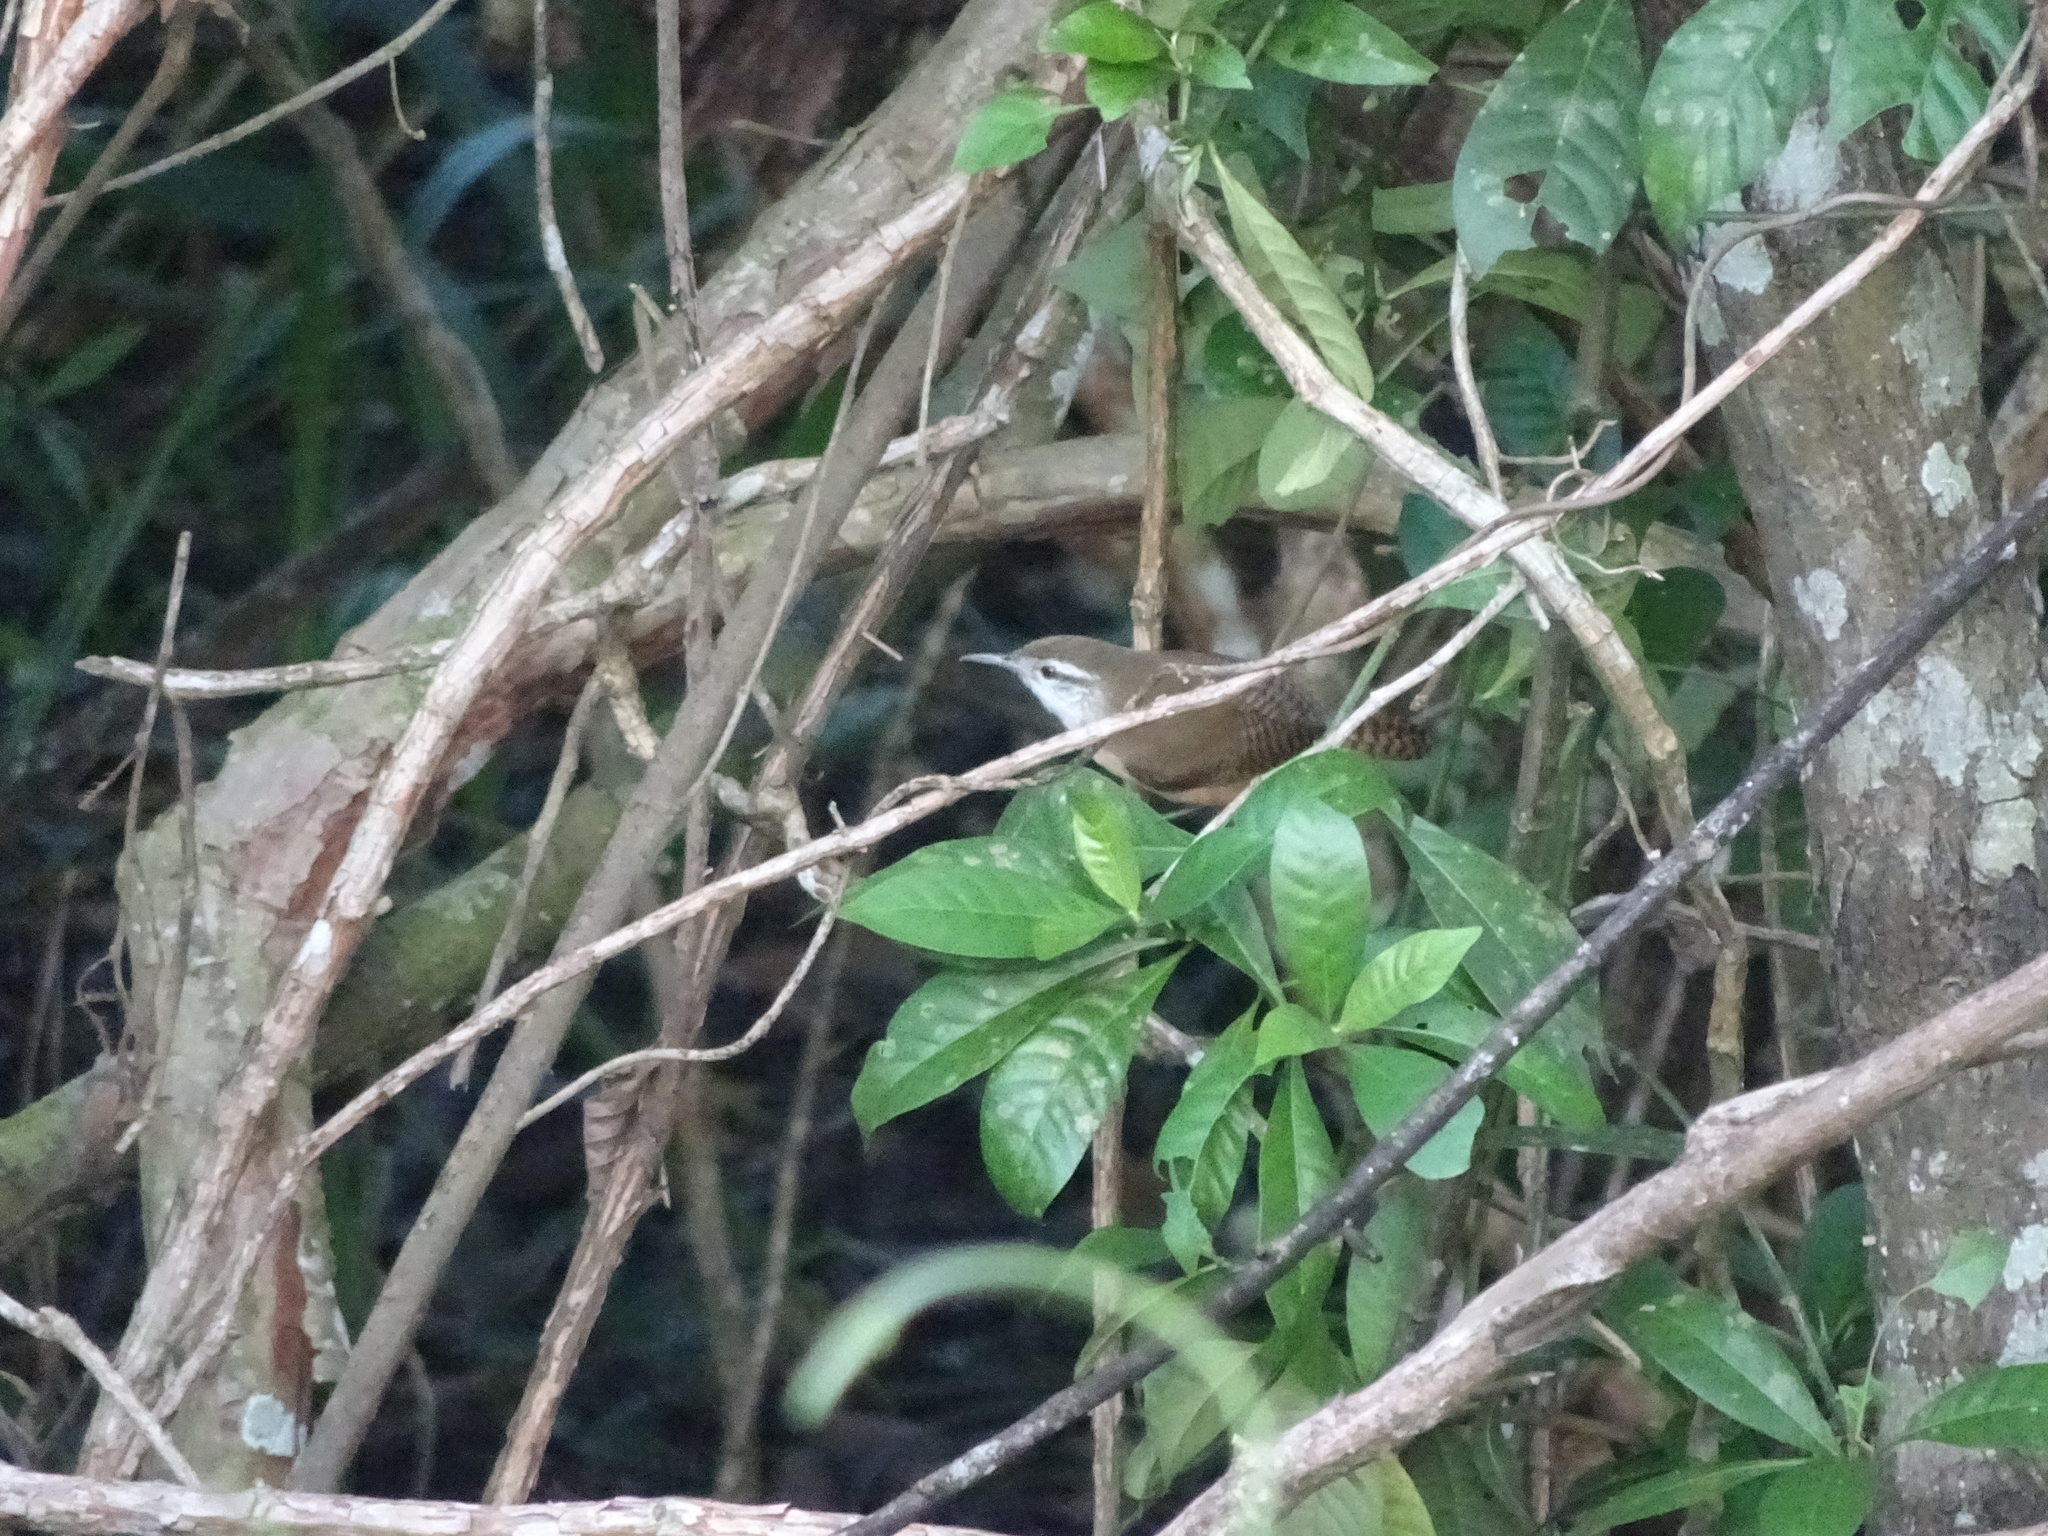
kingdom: Animalia
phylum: Chordata
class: Aves
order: Passeriformes
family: Troglodytidae
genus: Cantorchilus
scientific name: Cantorchilus leucotis
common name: Buff-breasted wren
